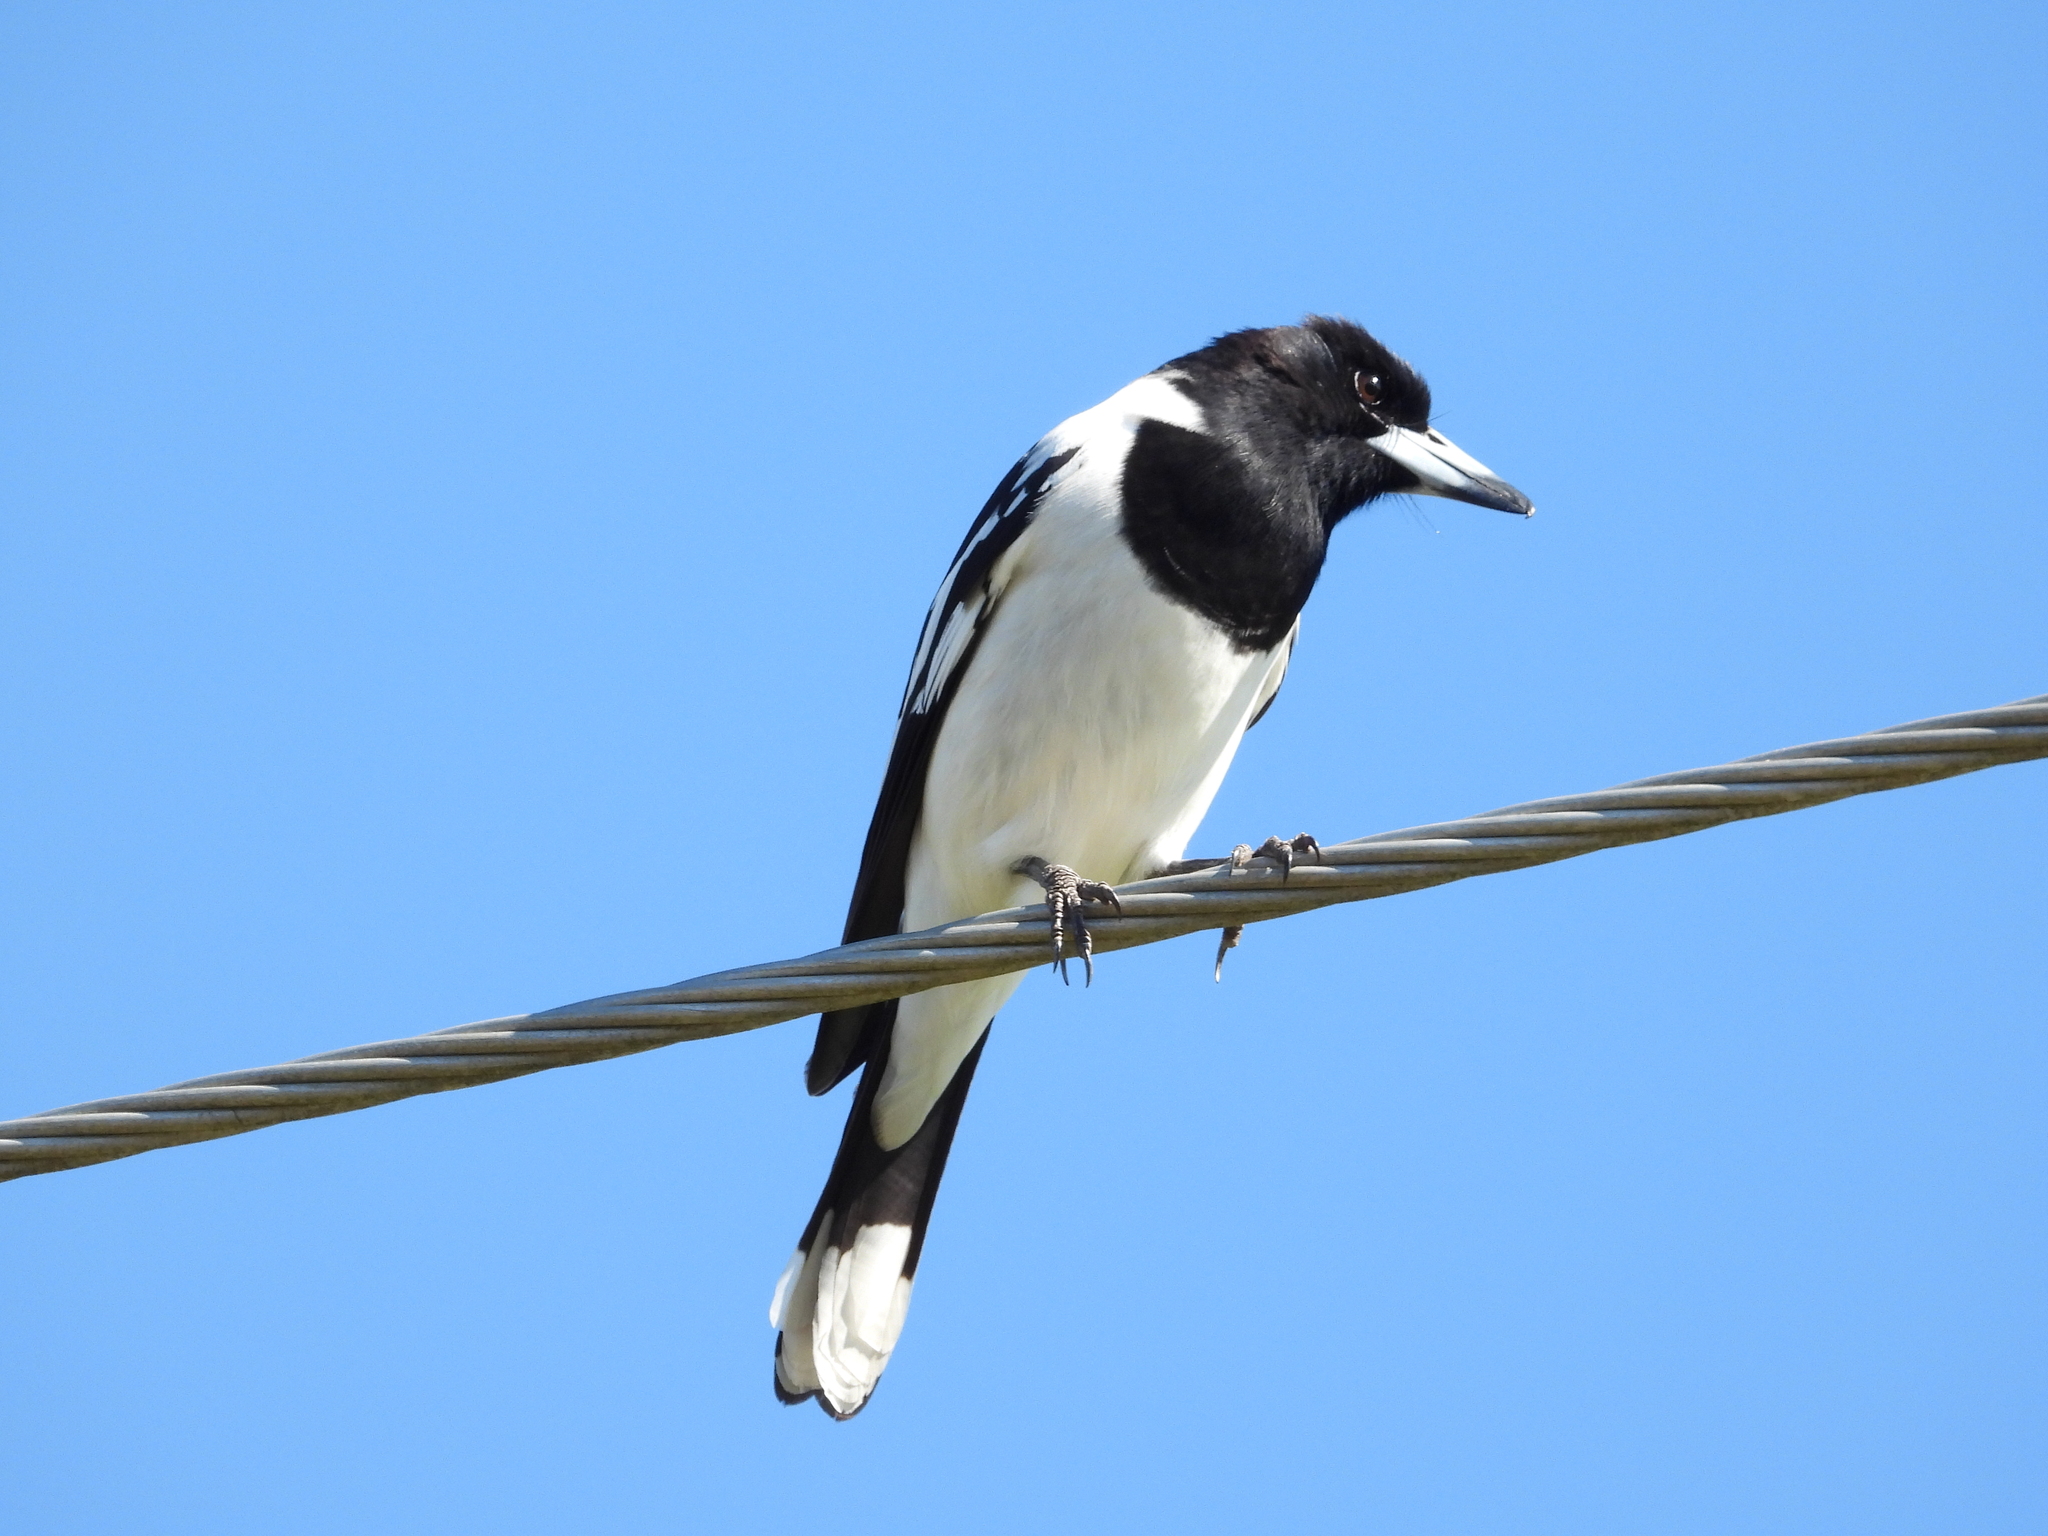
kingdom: Animalia
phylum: Chordata
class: Aves
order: Passeriformes
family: Cracticidae
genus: Cracticus
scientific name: Cracticus nigrogularis
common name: Pied butcherbird
